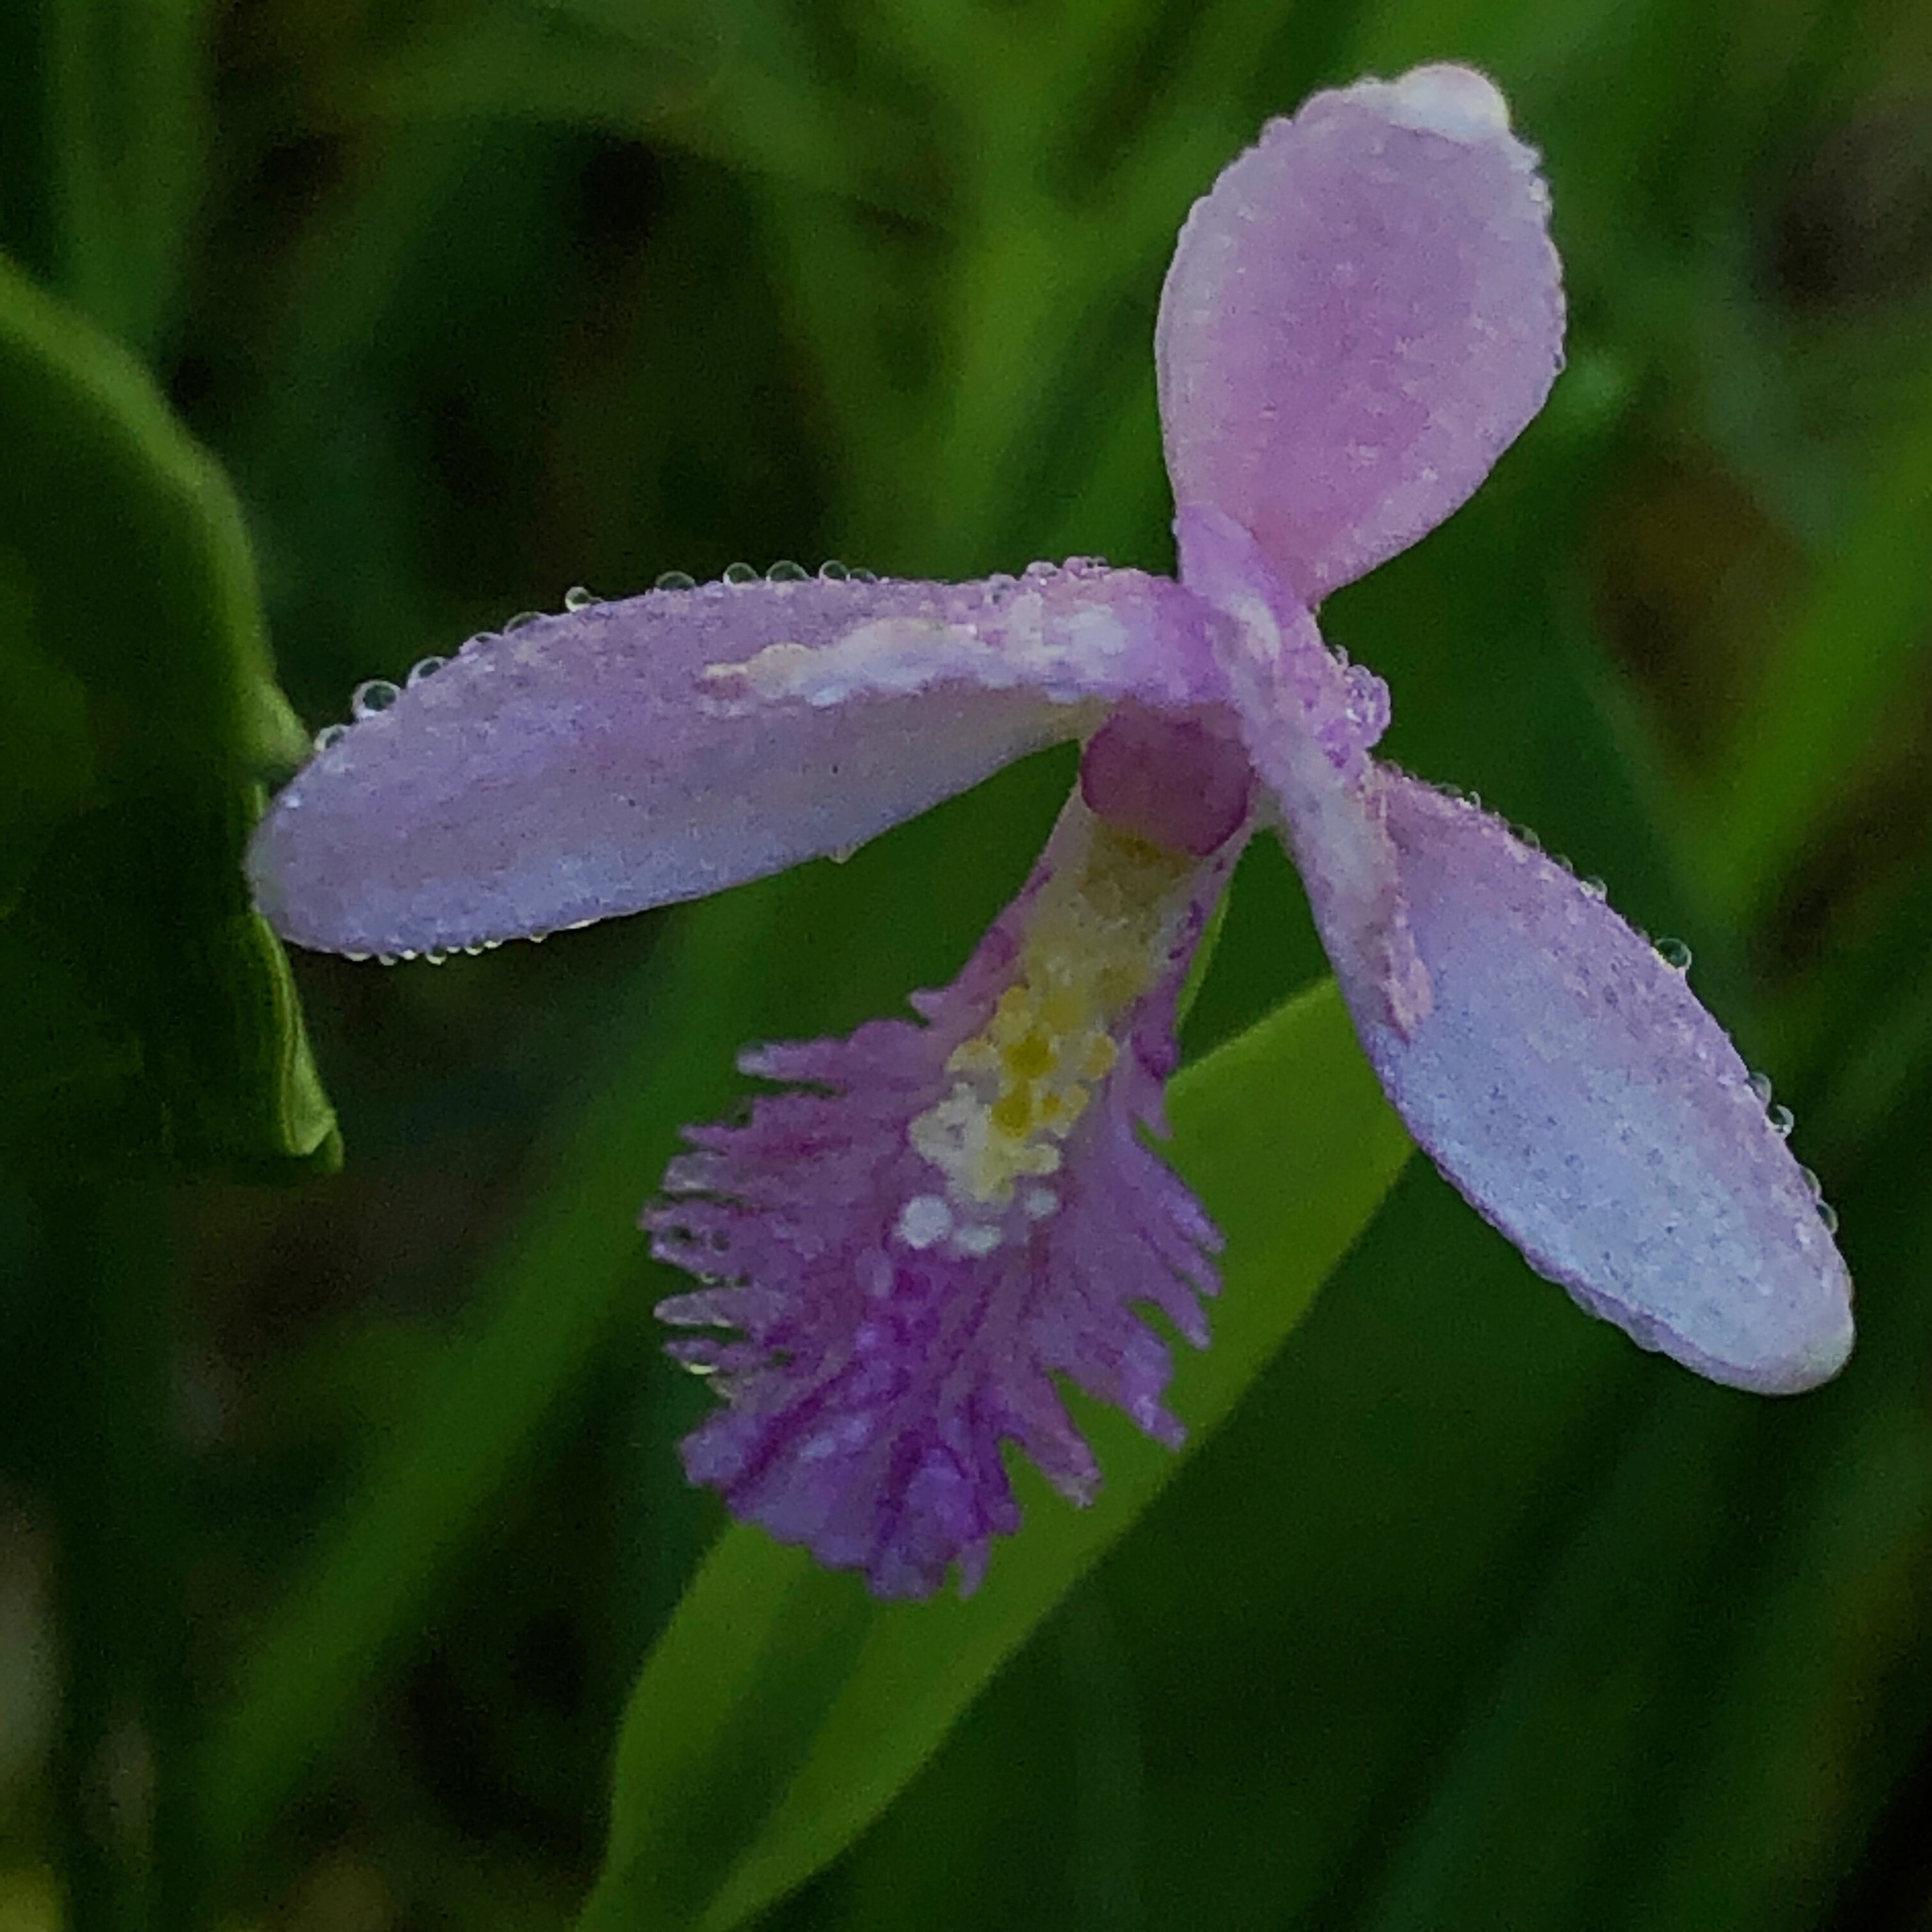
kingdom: Plantae
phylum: Tracheophyta
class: Liliopsida
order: Asparagales
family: Orchidaceae
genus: Pogonia
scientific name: Pogonia ophioglossoides
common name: Rose pogonia
